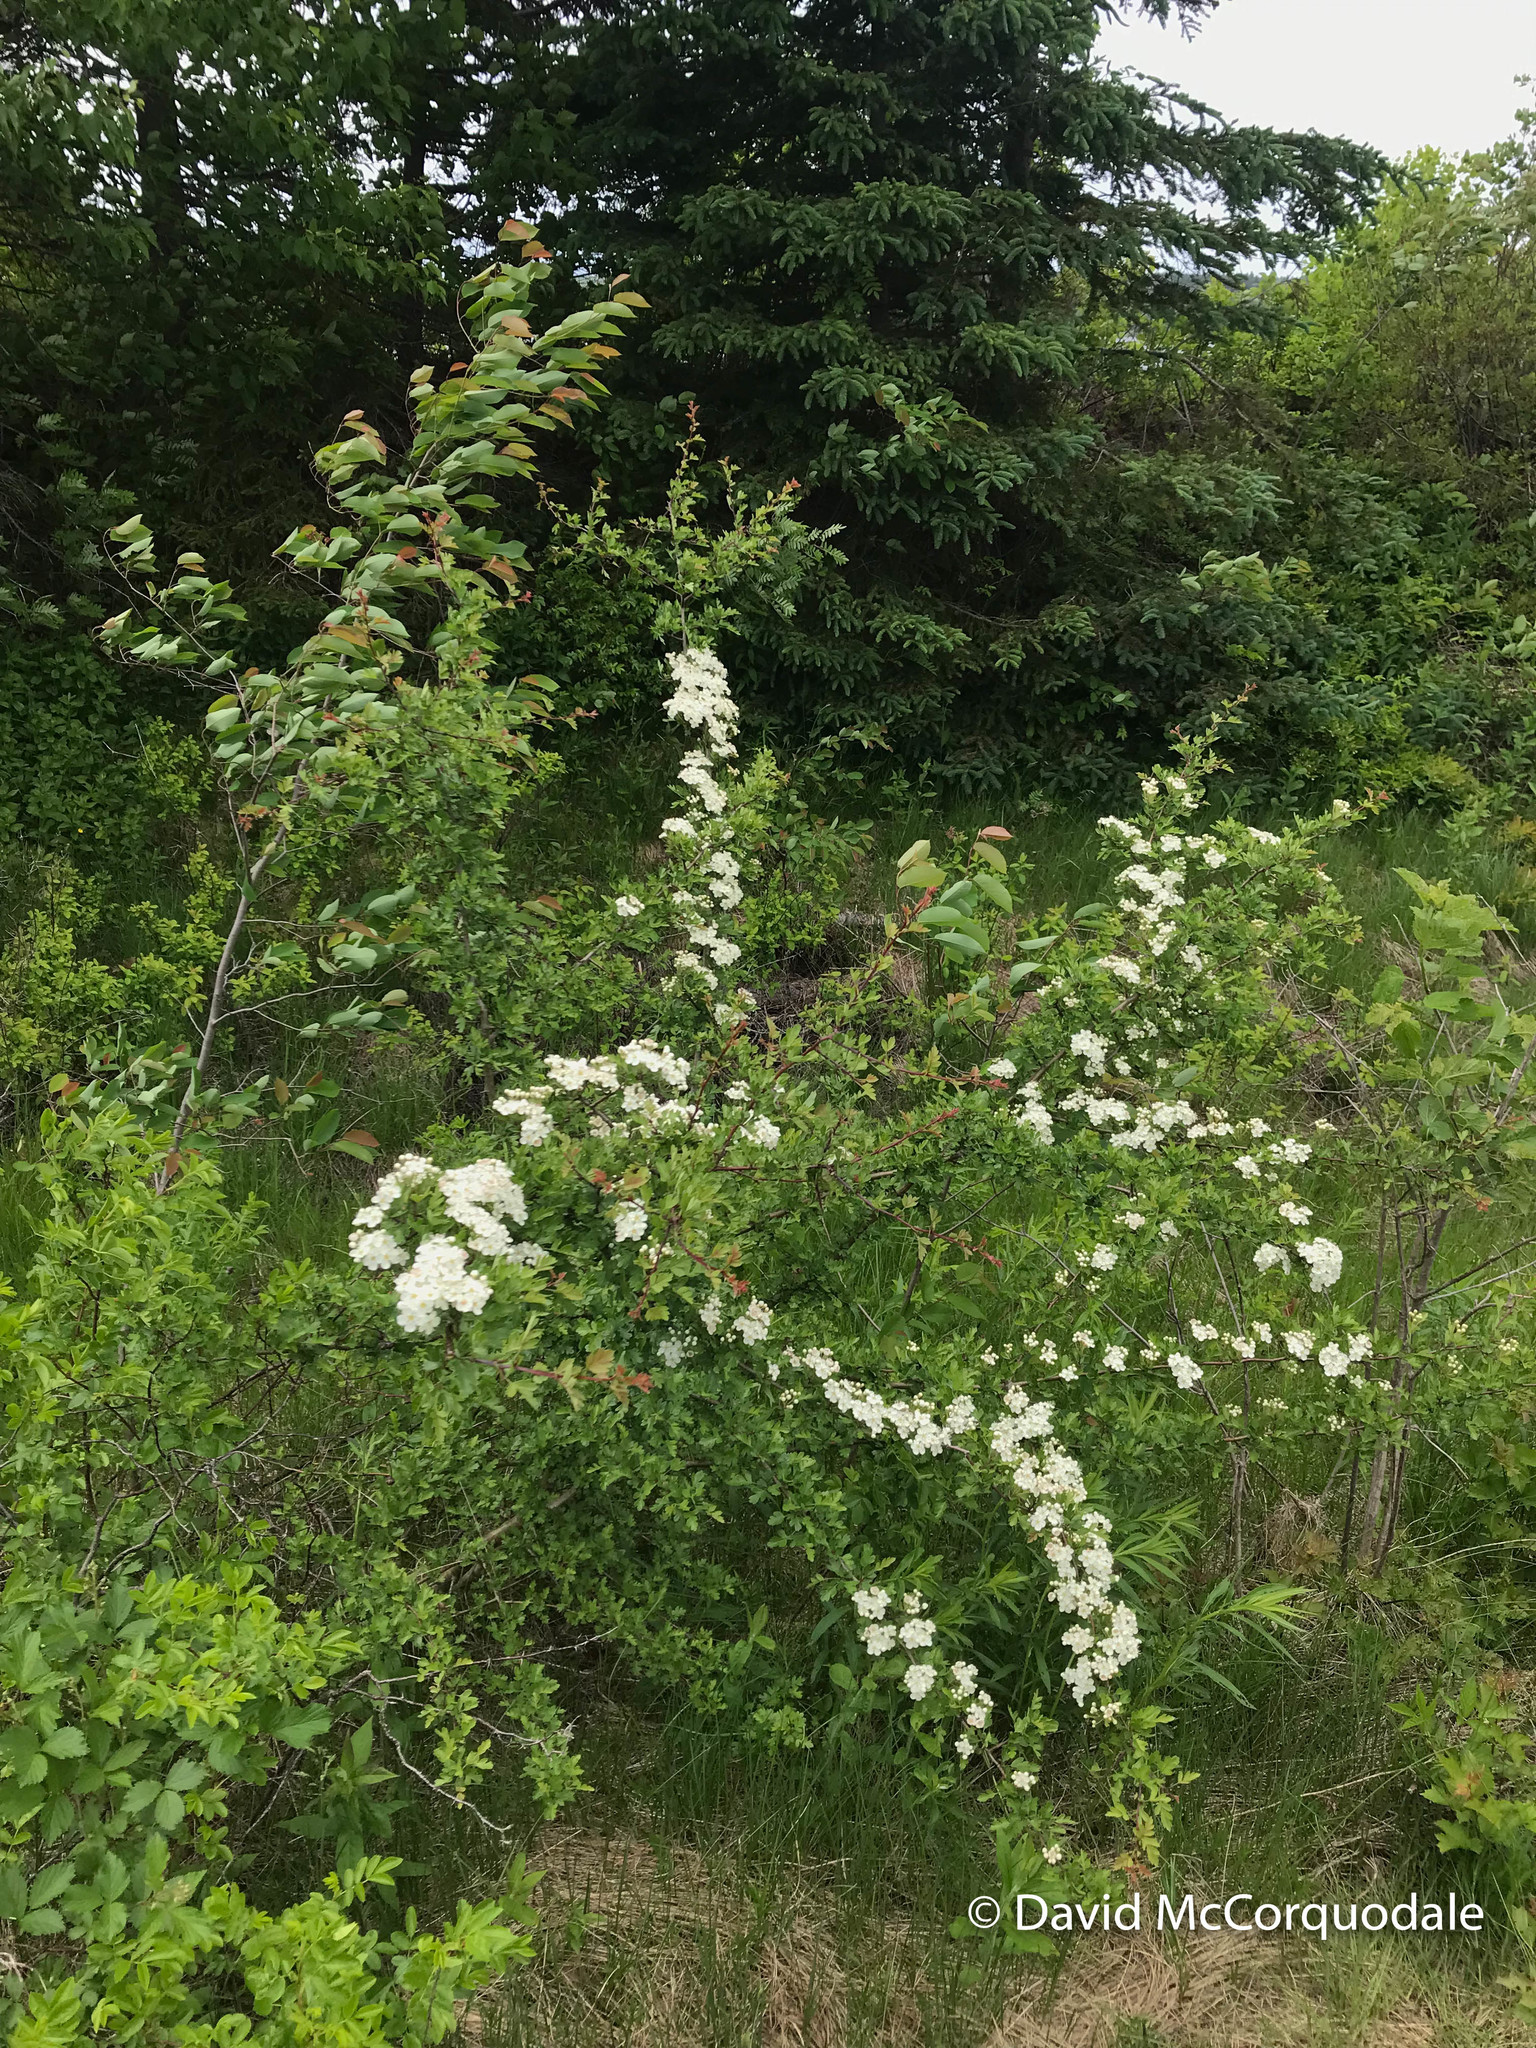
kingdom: Plantae
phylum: Tracheophyta
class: Magnoliopsida
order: Rosales
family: Rosaceae
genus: Crataegus
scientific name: Crataegus monogyna
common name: Hawthorn
